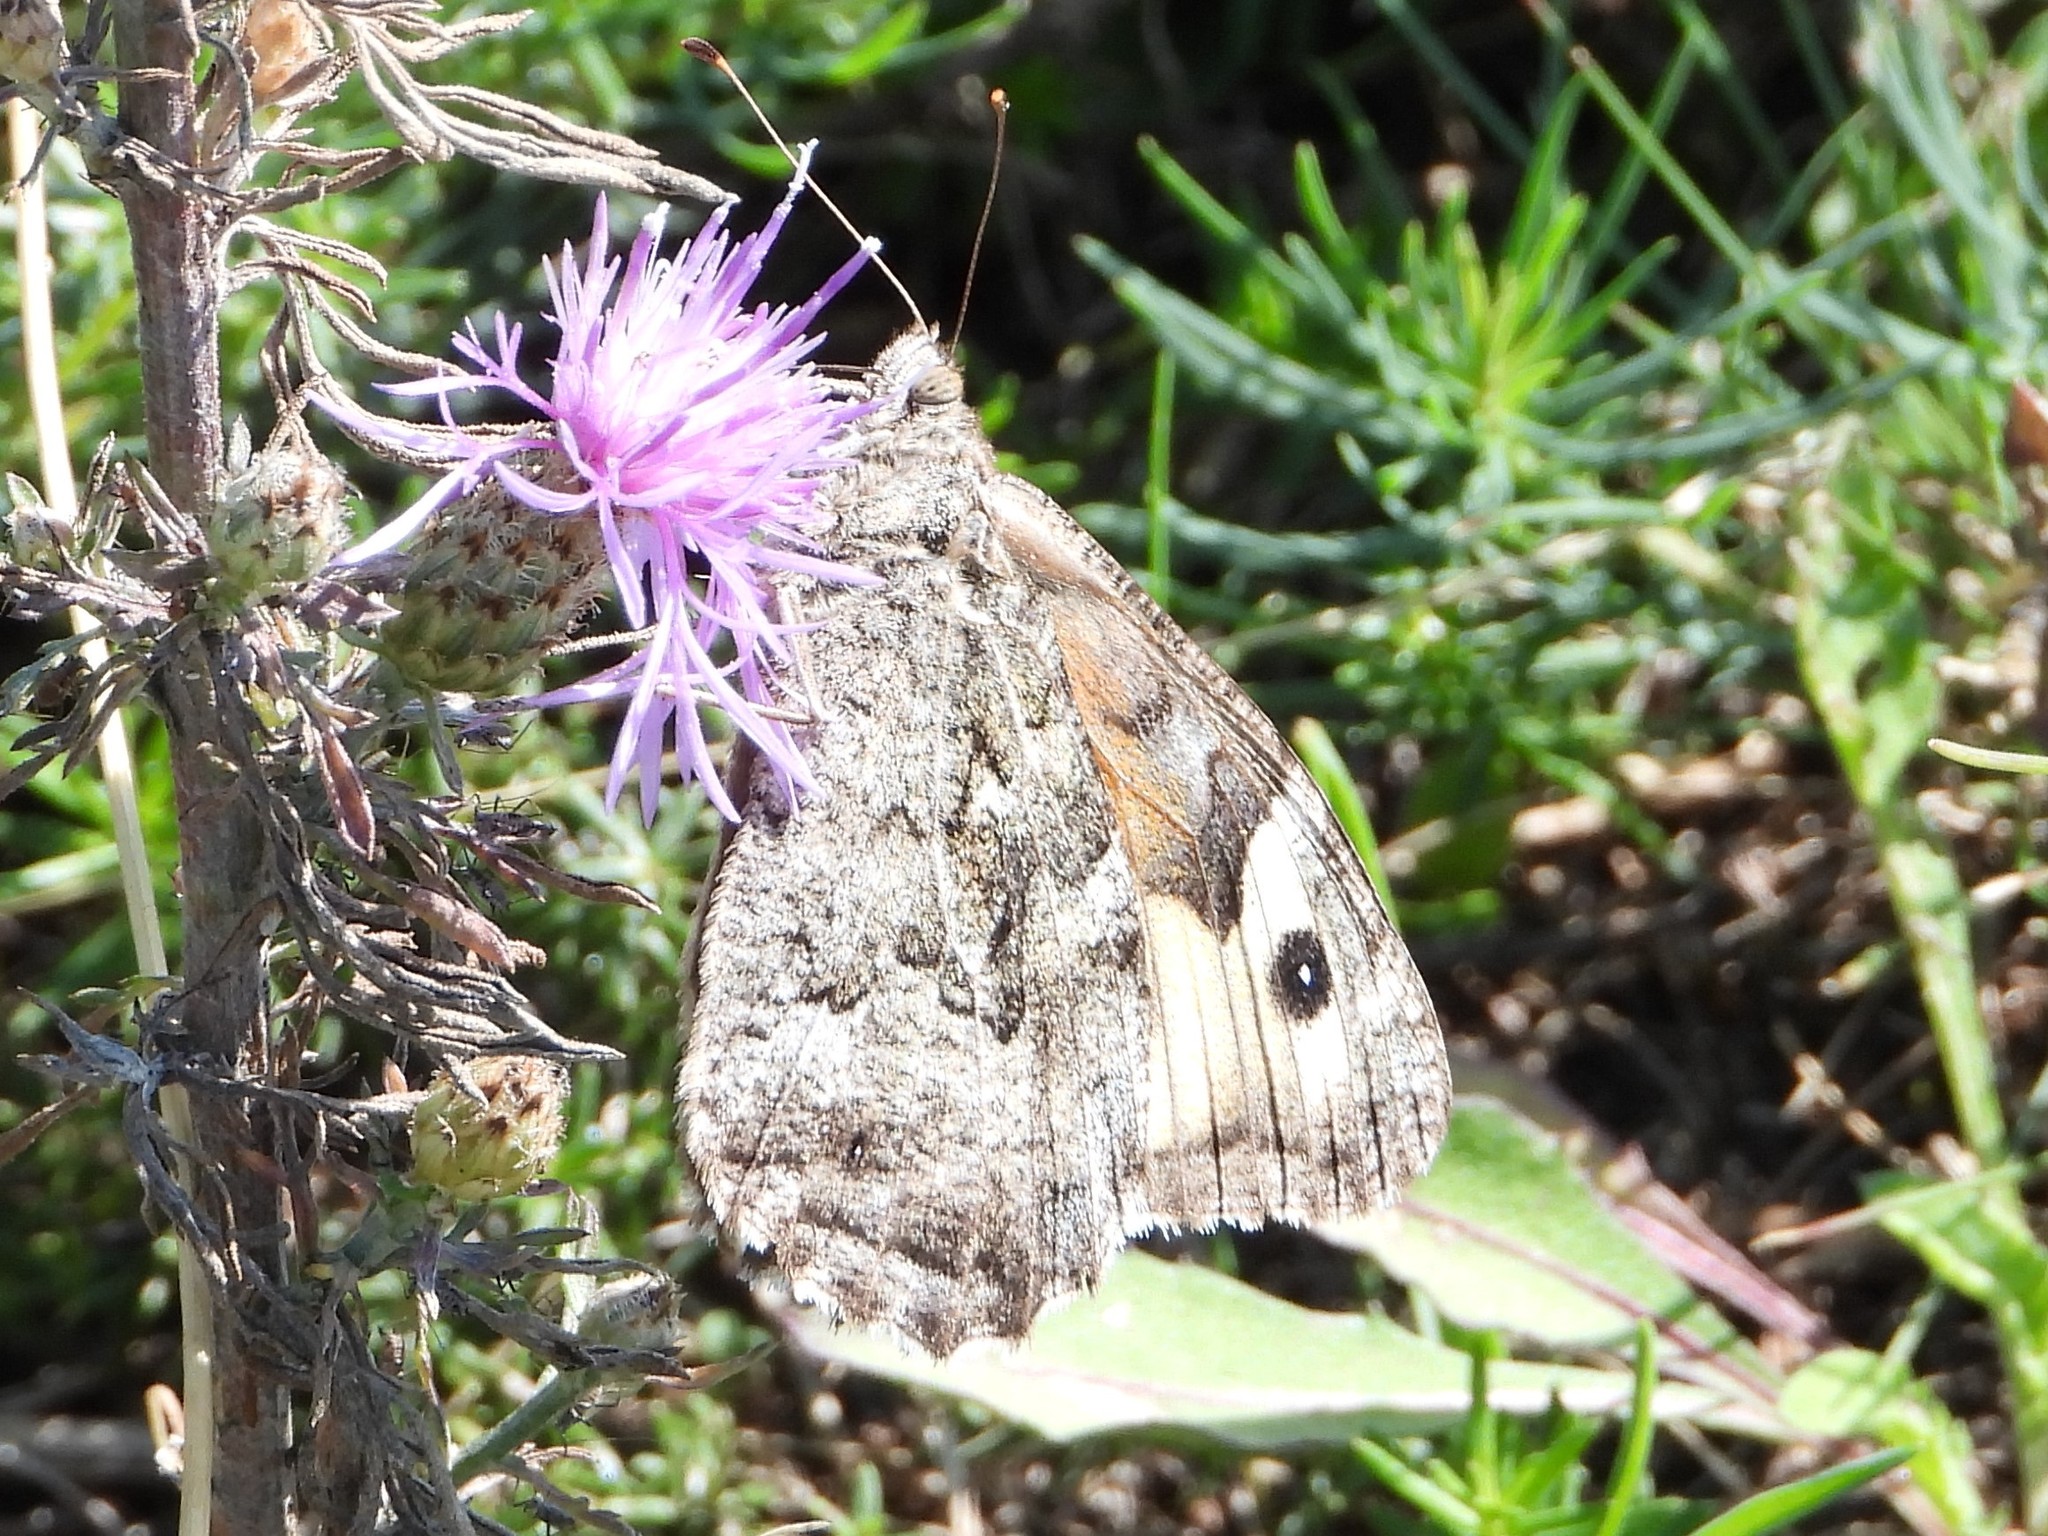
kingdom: Animalia
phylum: Arthropoda
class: Insecta
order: Lepidoptera
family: Nymphalidae
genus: Hipparchia
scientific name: Hipparchia semele
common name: Grayling
